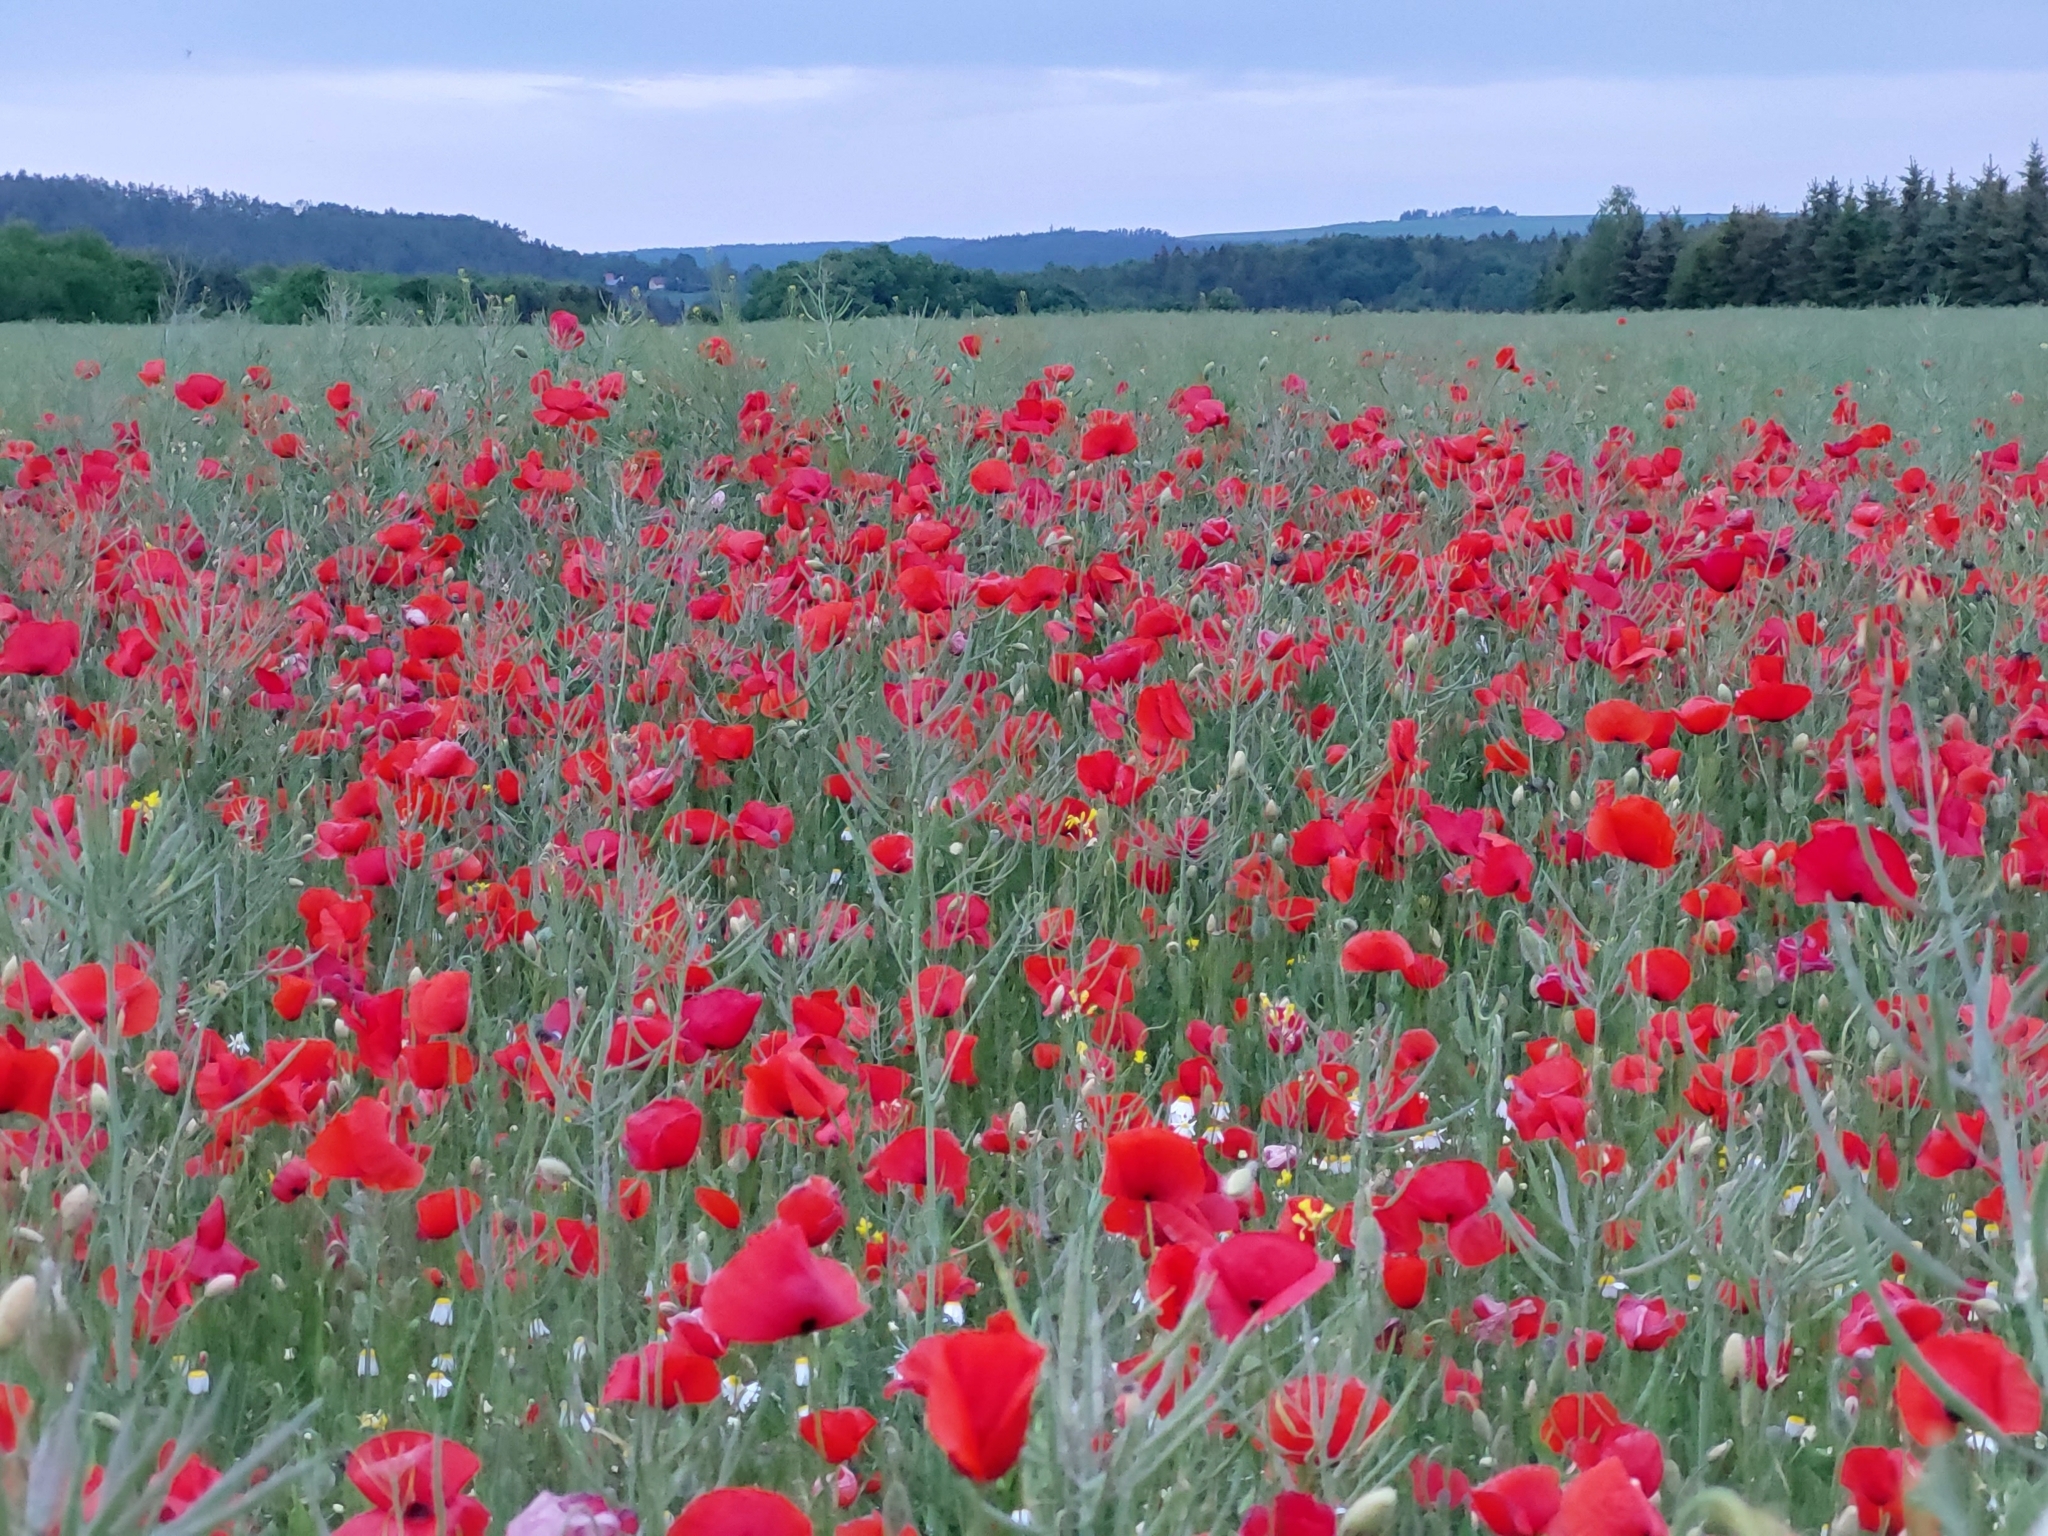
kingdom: Plantae
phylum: Tracheophyta
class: Magnoliopsida
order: Ranunculales
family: Papaveraceae
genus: Papaver
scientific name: Papaver rhoeas
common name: Corn poppy
